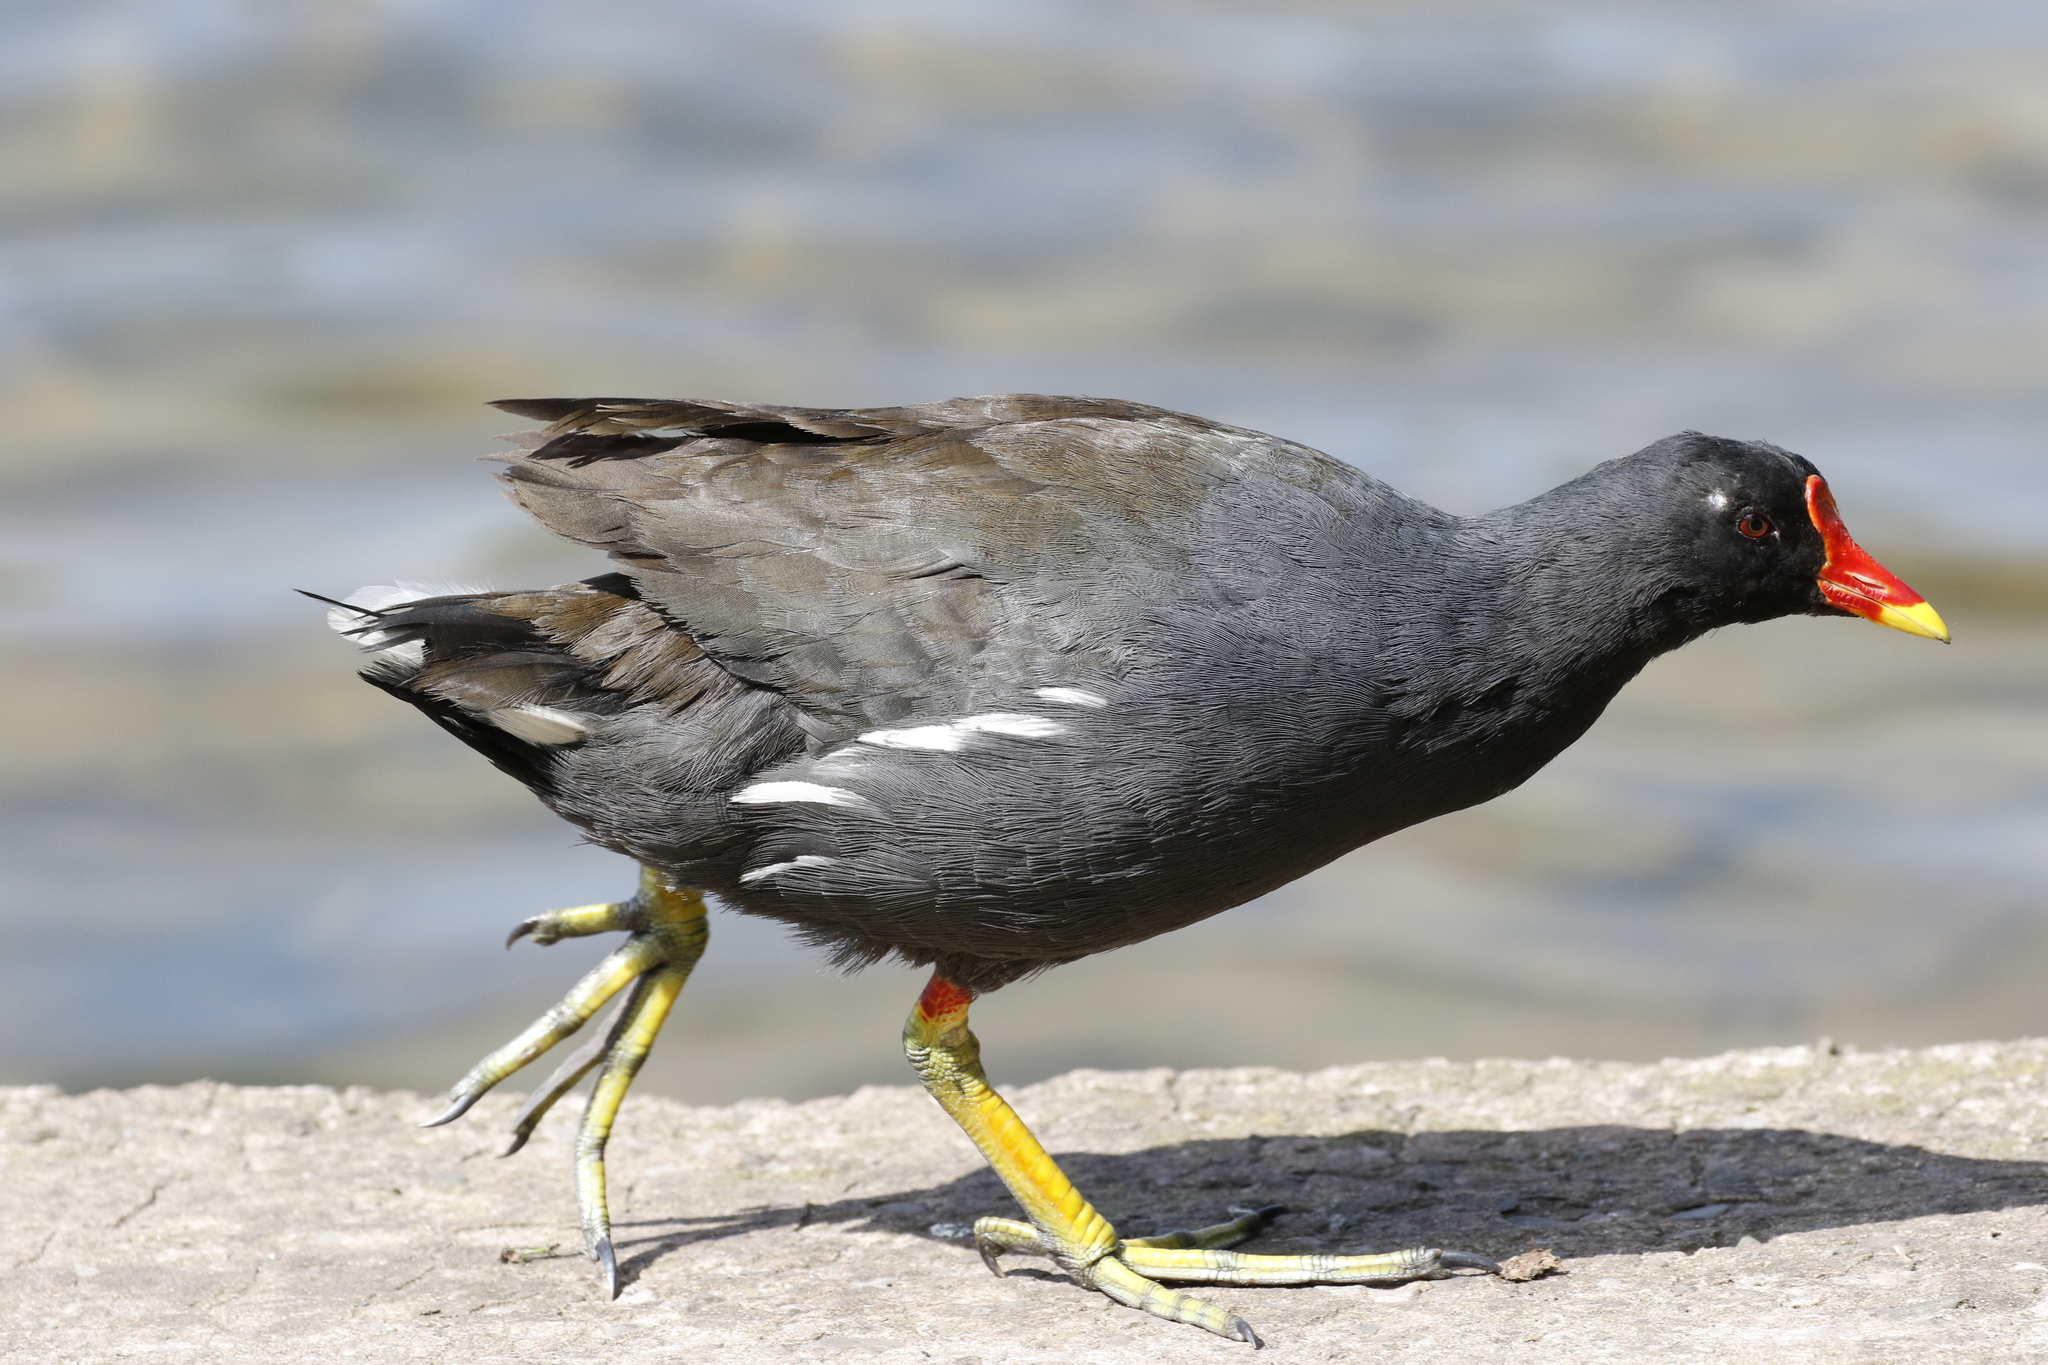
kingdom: Animalia
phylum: Chordata
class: Aves
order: Gruiformes
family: Rallidae
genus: Gallinula
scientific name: Gallinula chloropus
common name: Common moorhen
